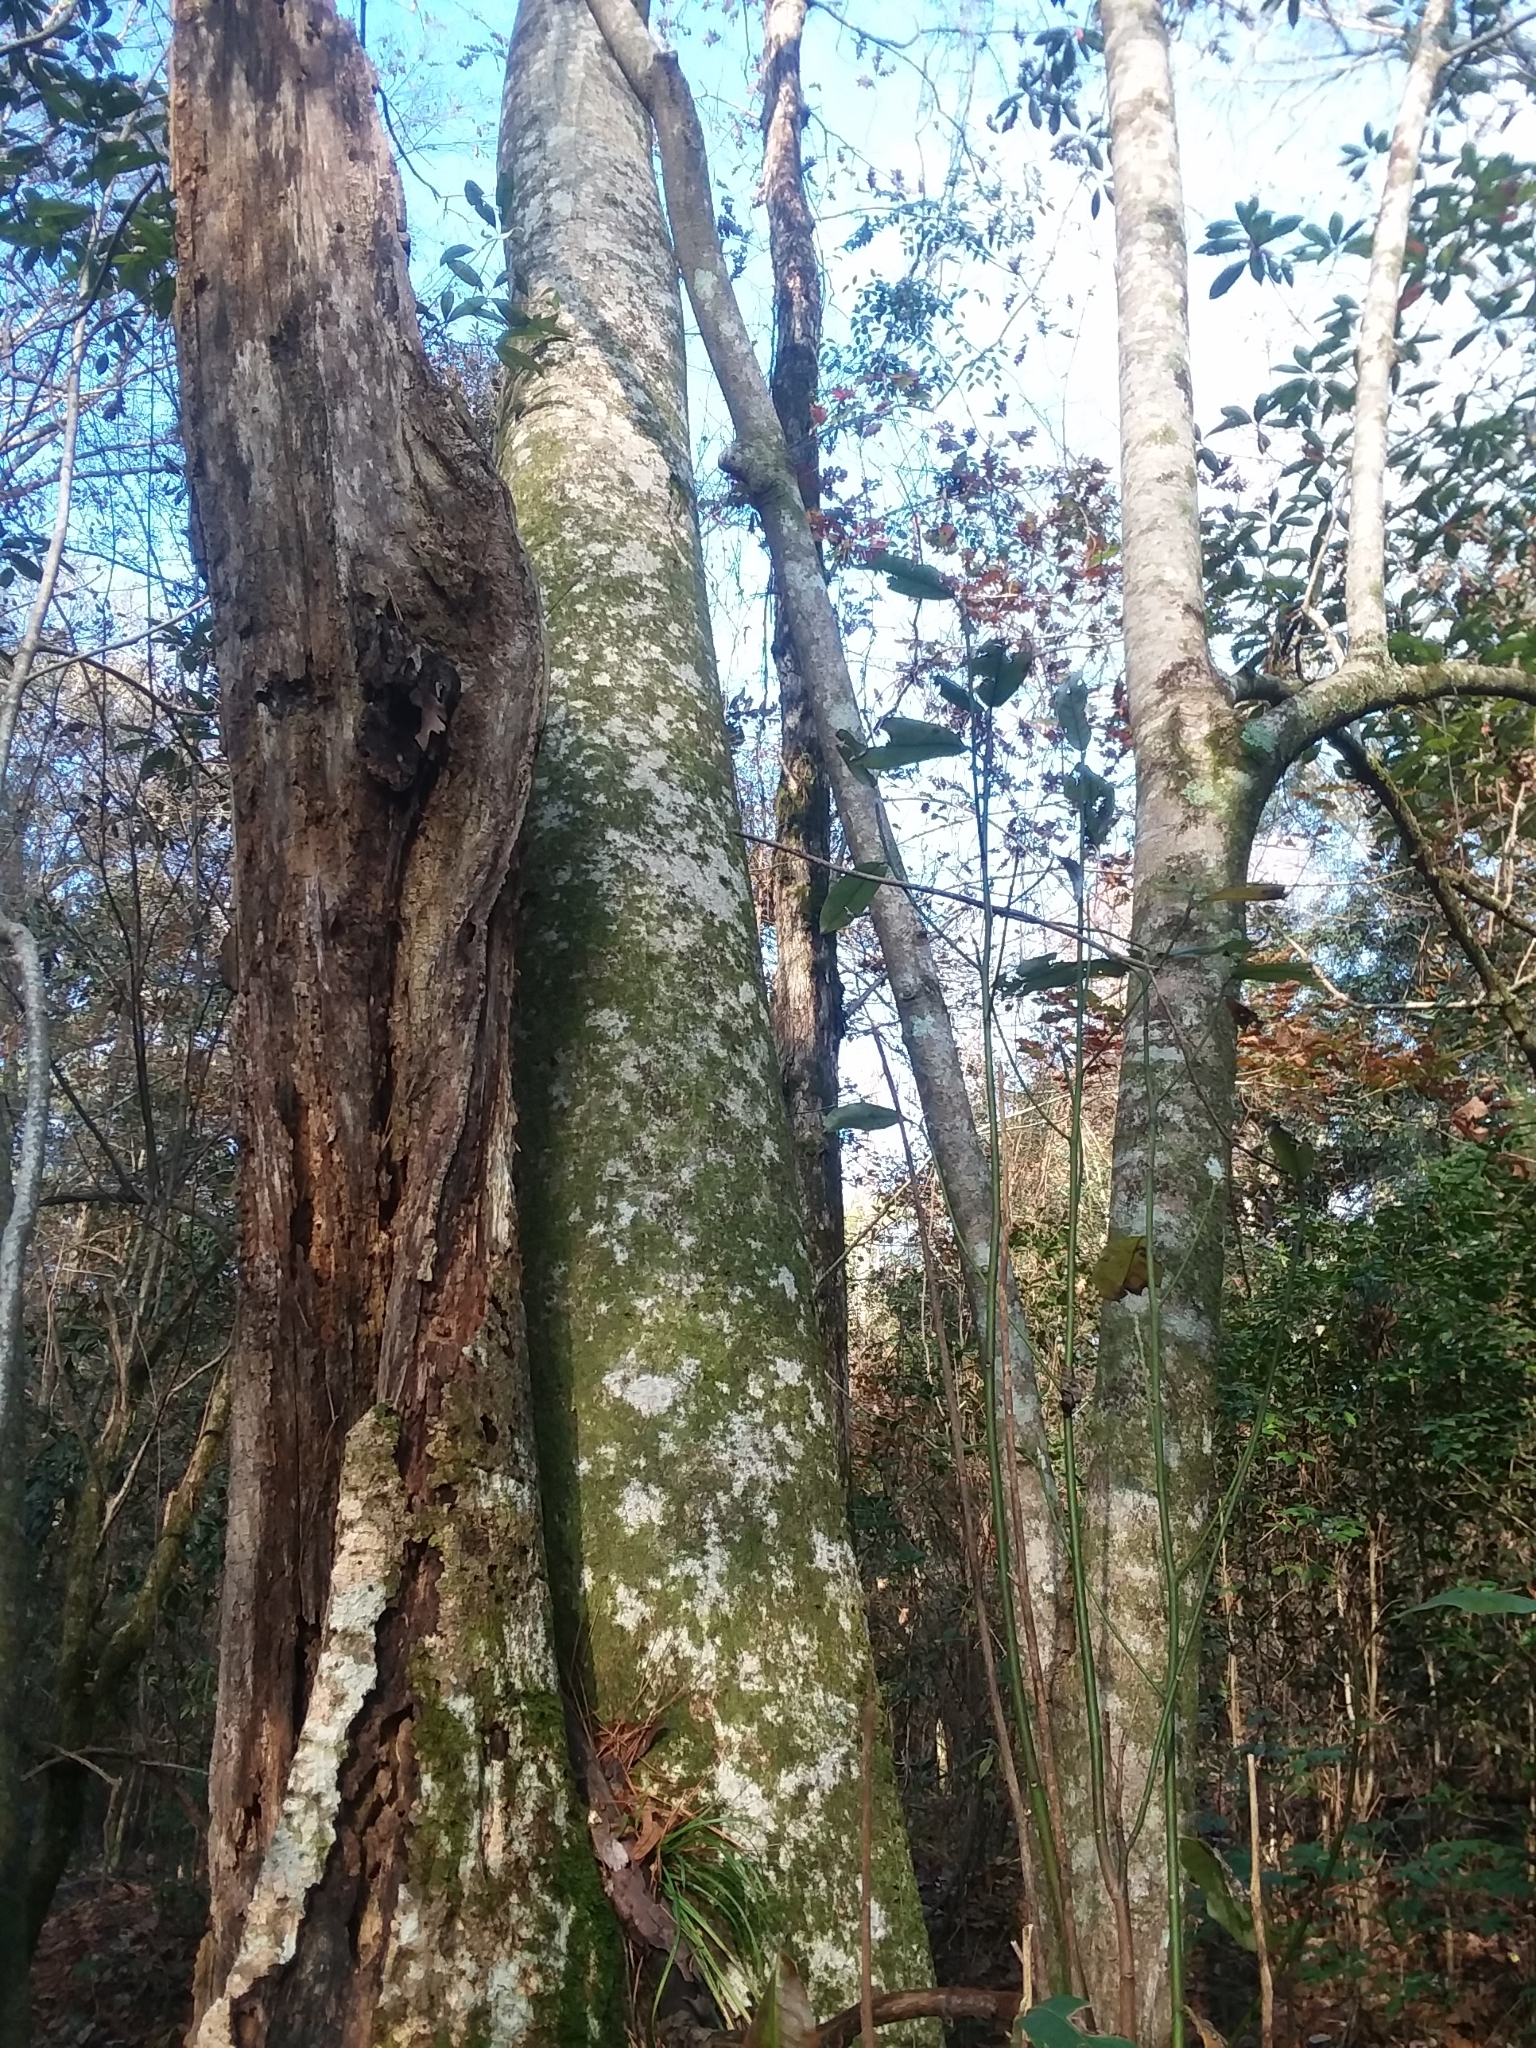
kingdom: Plantae
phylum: Tracheophyta
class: Magnoliopsida
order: Magnoliales
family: Magnoliaceae
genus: Magnolia
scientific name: Magnolia virginiana
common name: Swamp bay
